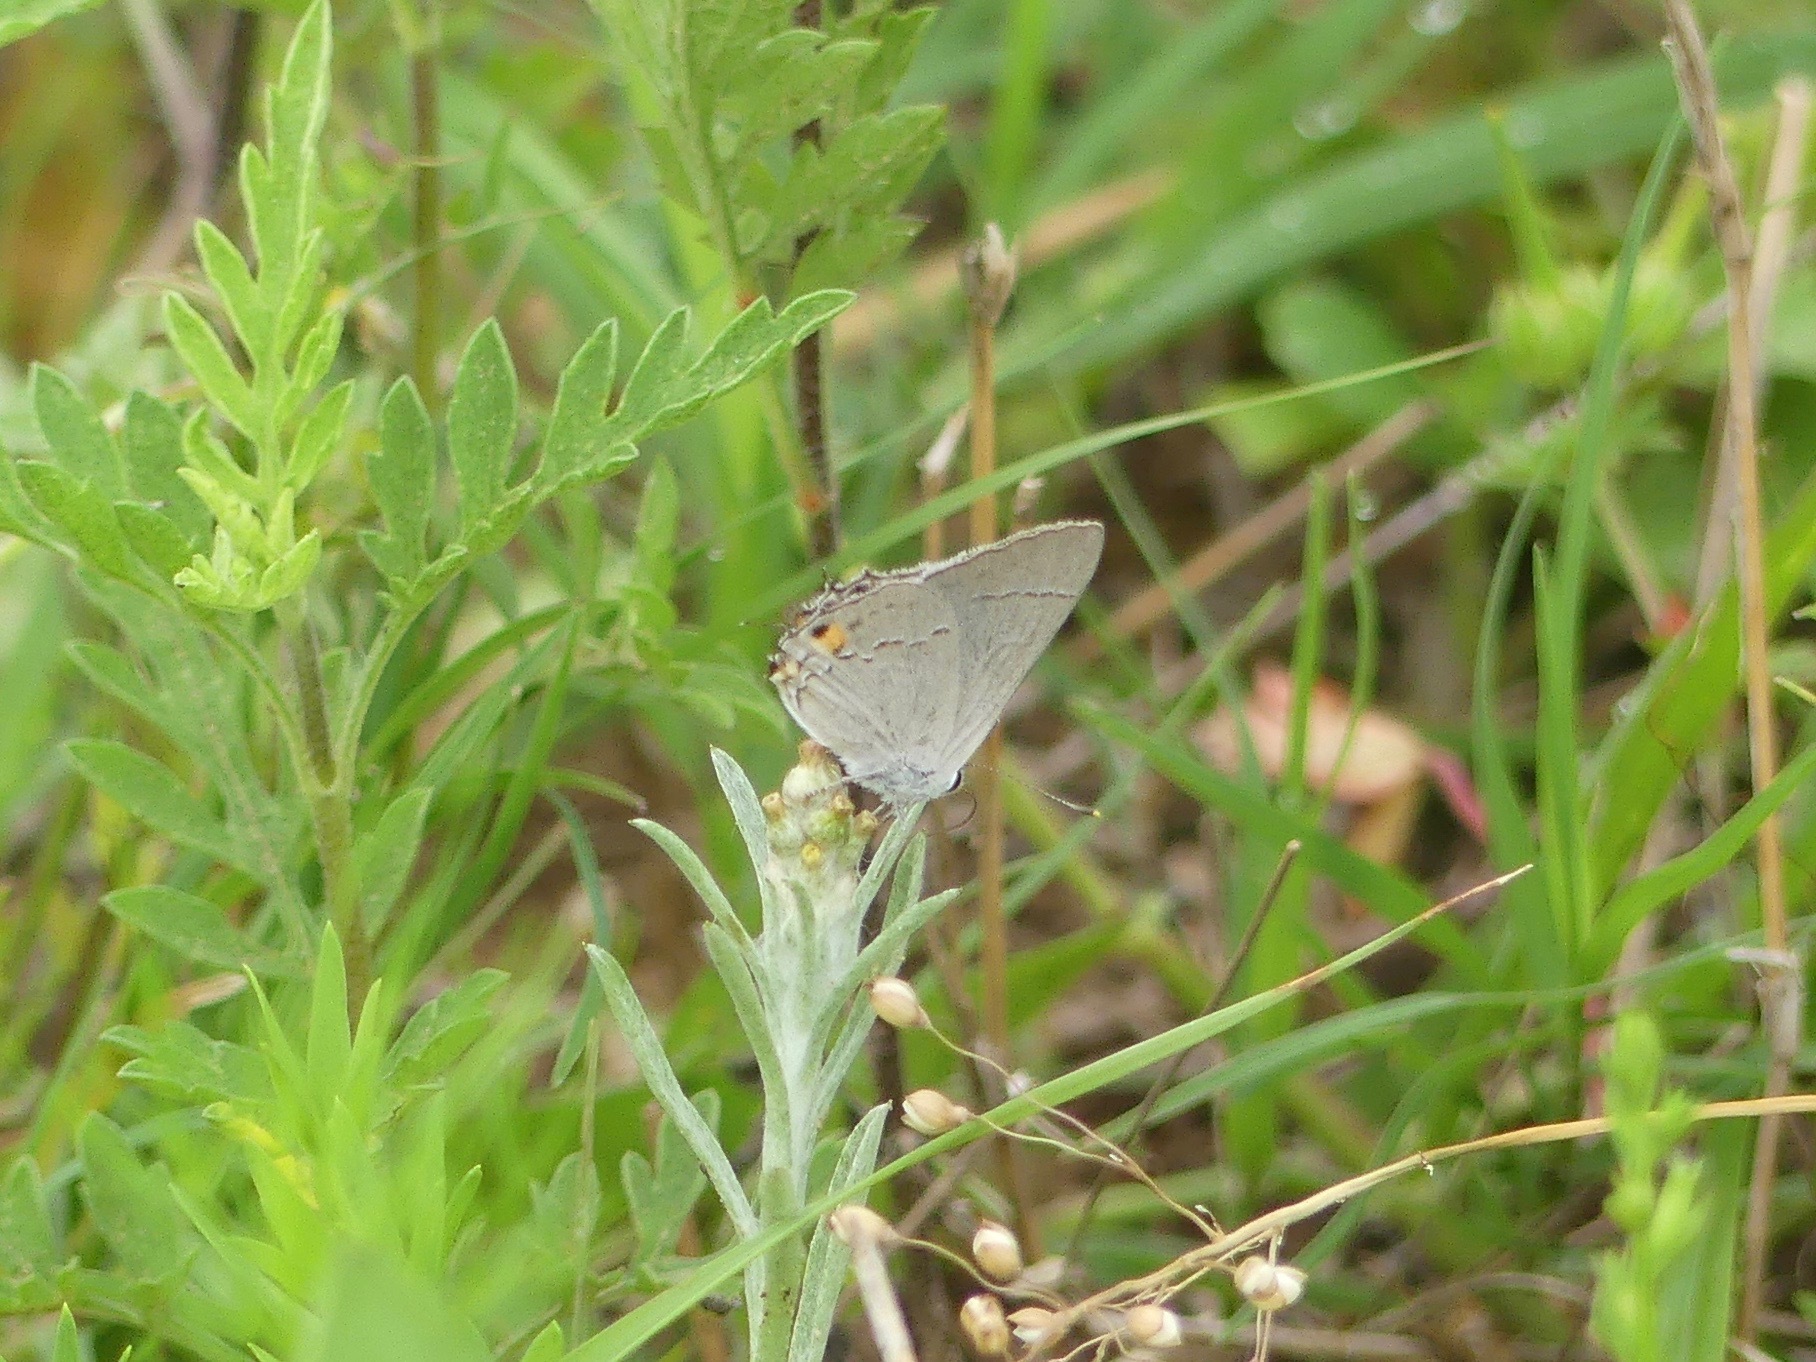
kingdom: Animalia
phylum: Arthropoda
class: Insecta
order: Lepidoptera
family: Lycaenidae
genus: Strymon
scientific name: Strymon melinus
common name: Gray hairstreak
